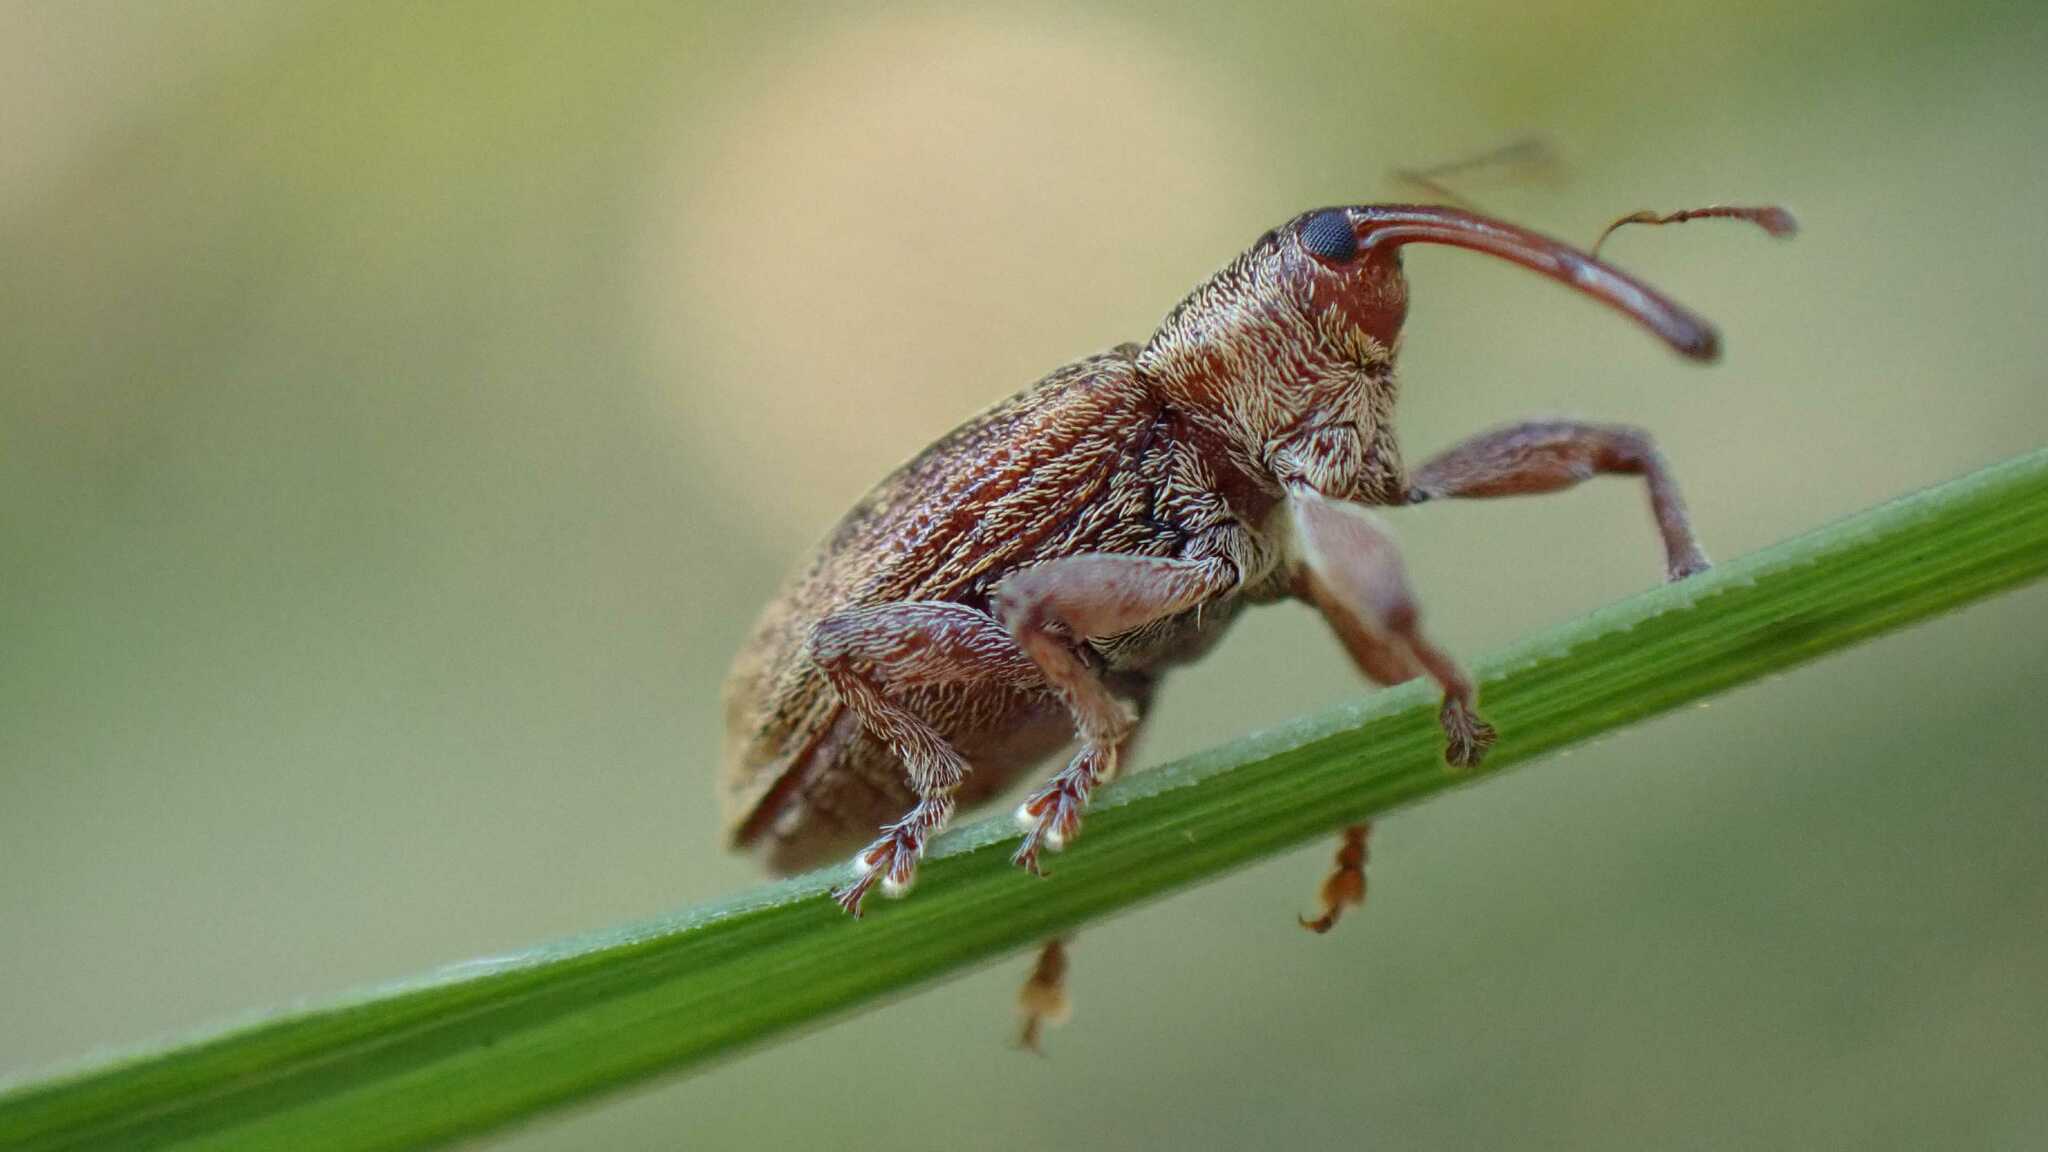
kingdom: Animalia
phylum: Arthropoda
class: Insecta
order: Coleoptera
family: Brachyceridae
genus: Erirhinus
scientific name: Erirhinus filirostris
